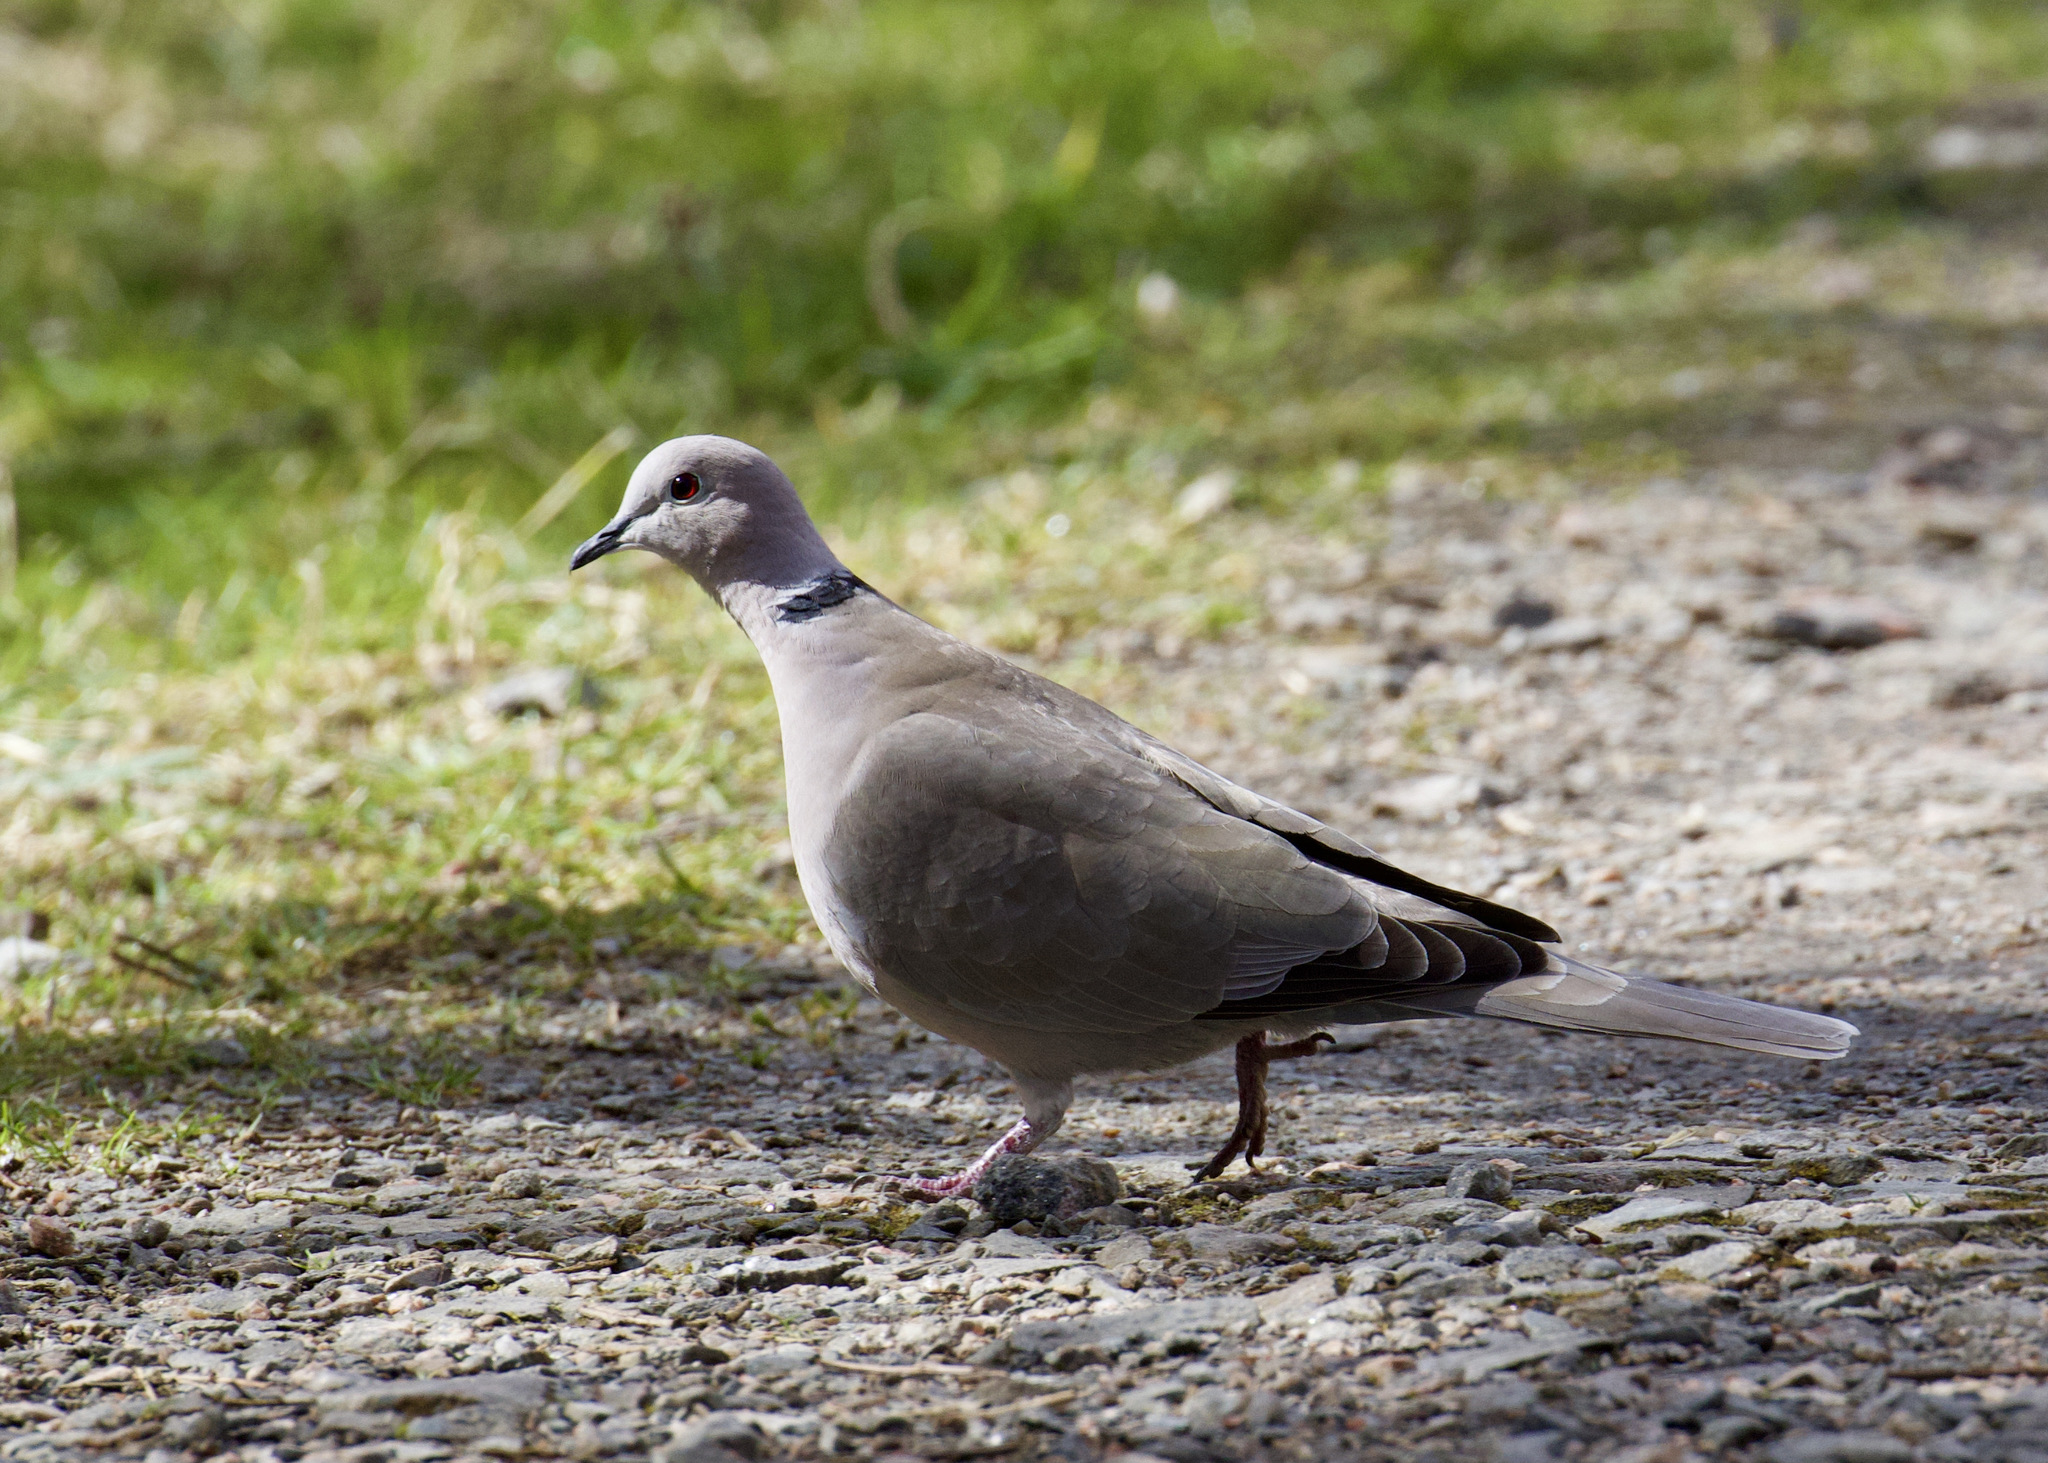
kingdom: Animalia
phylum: Chordata
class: Aves
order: Columbiformes
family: Columbidae
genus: Streptopelia
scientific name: Streptopelia decaocto
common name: Eurasian collared dove
